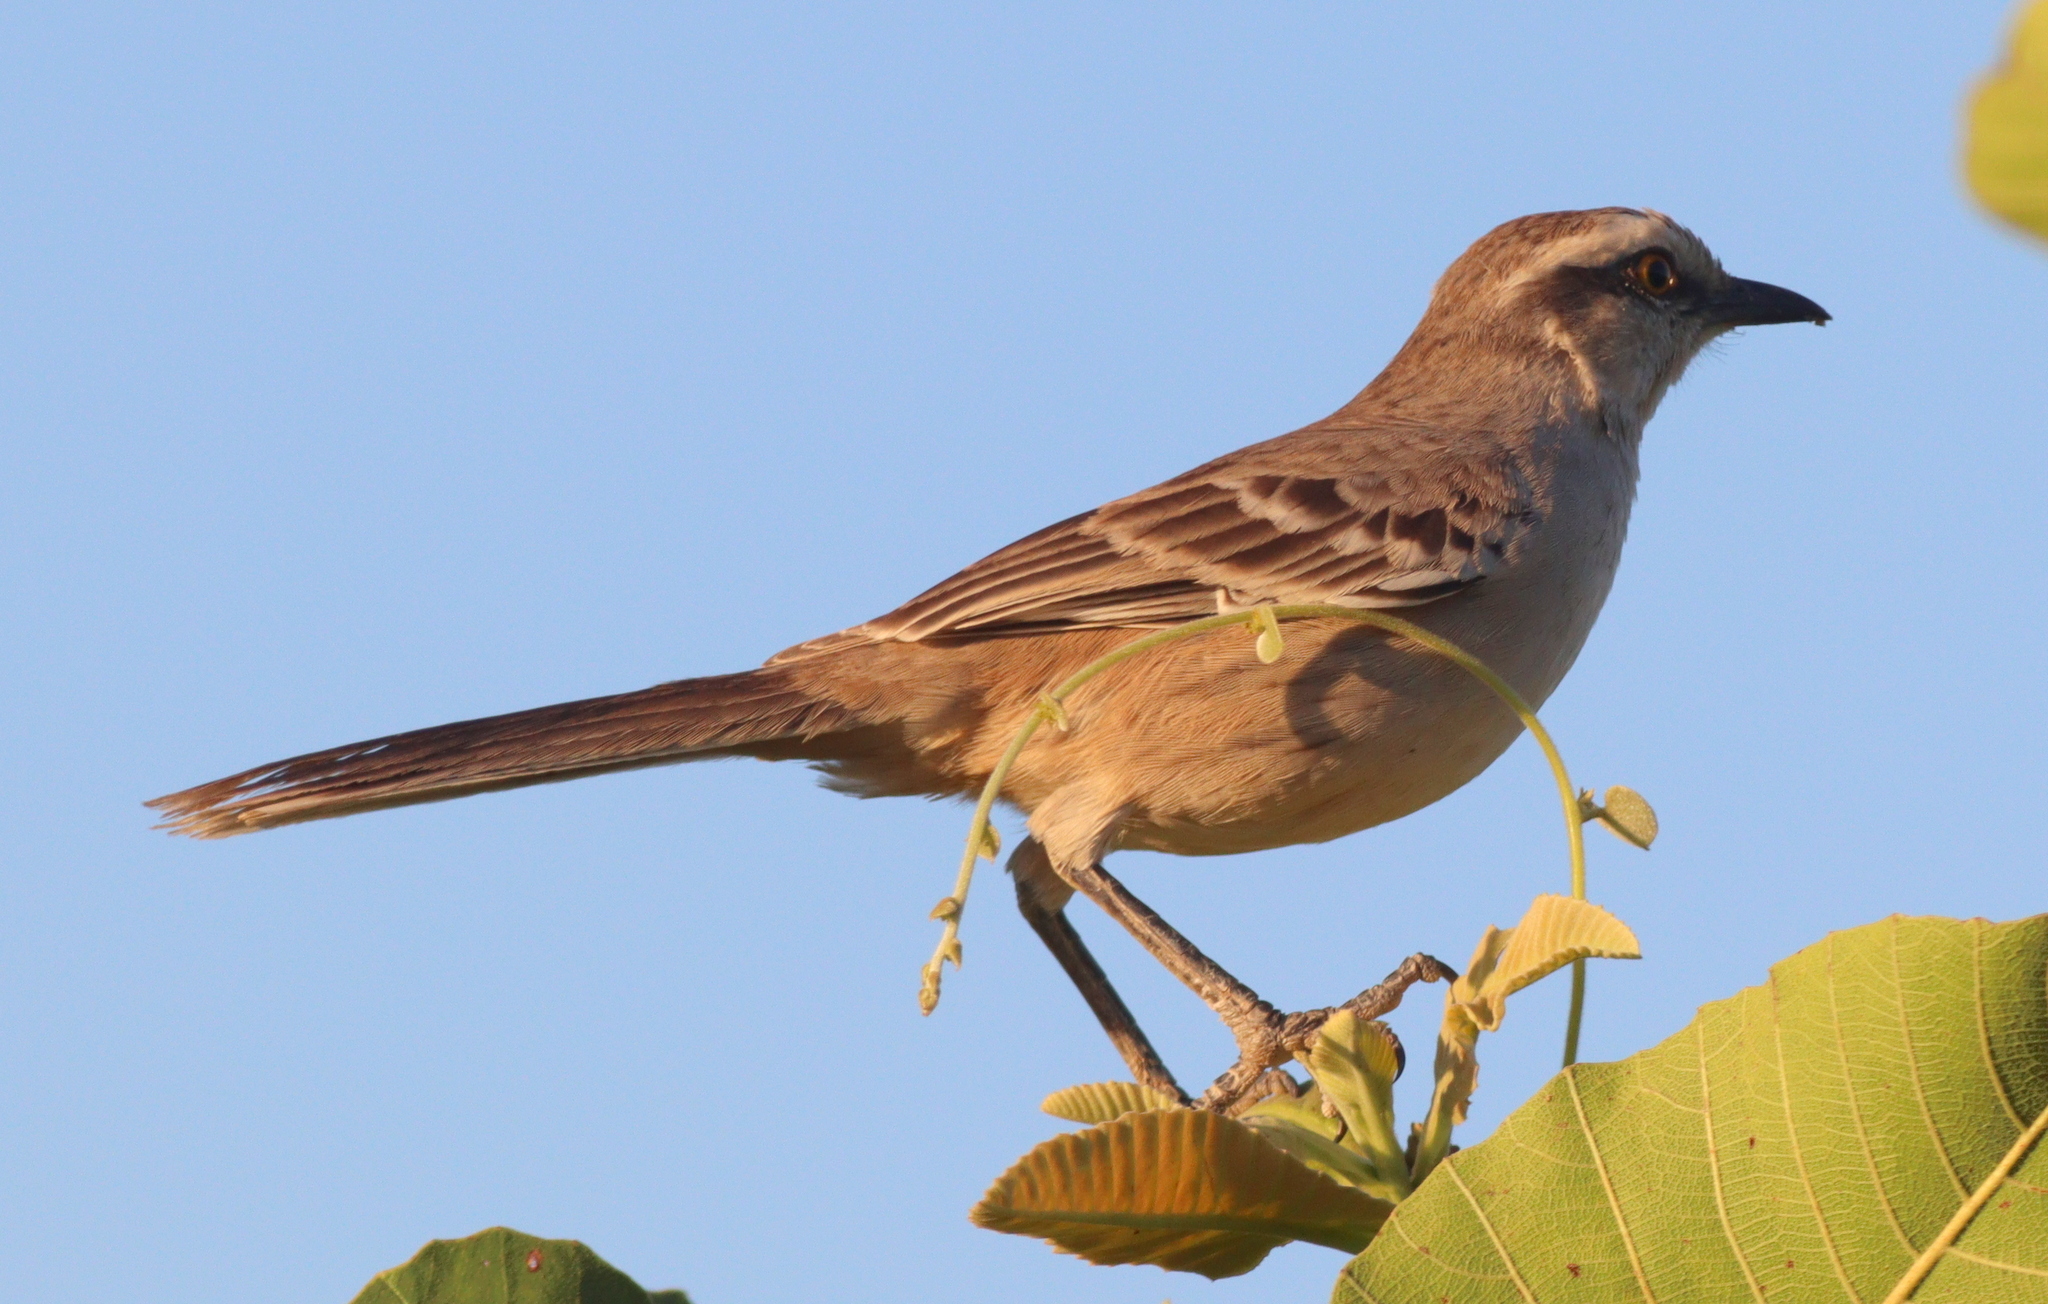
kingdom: Animalia
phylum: Chordata
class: Aves
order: Passeriformes
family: Mimidae
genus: Mimus
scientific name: Mimus saturninus
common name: Chalk-browed mockingbird
